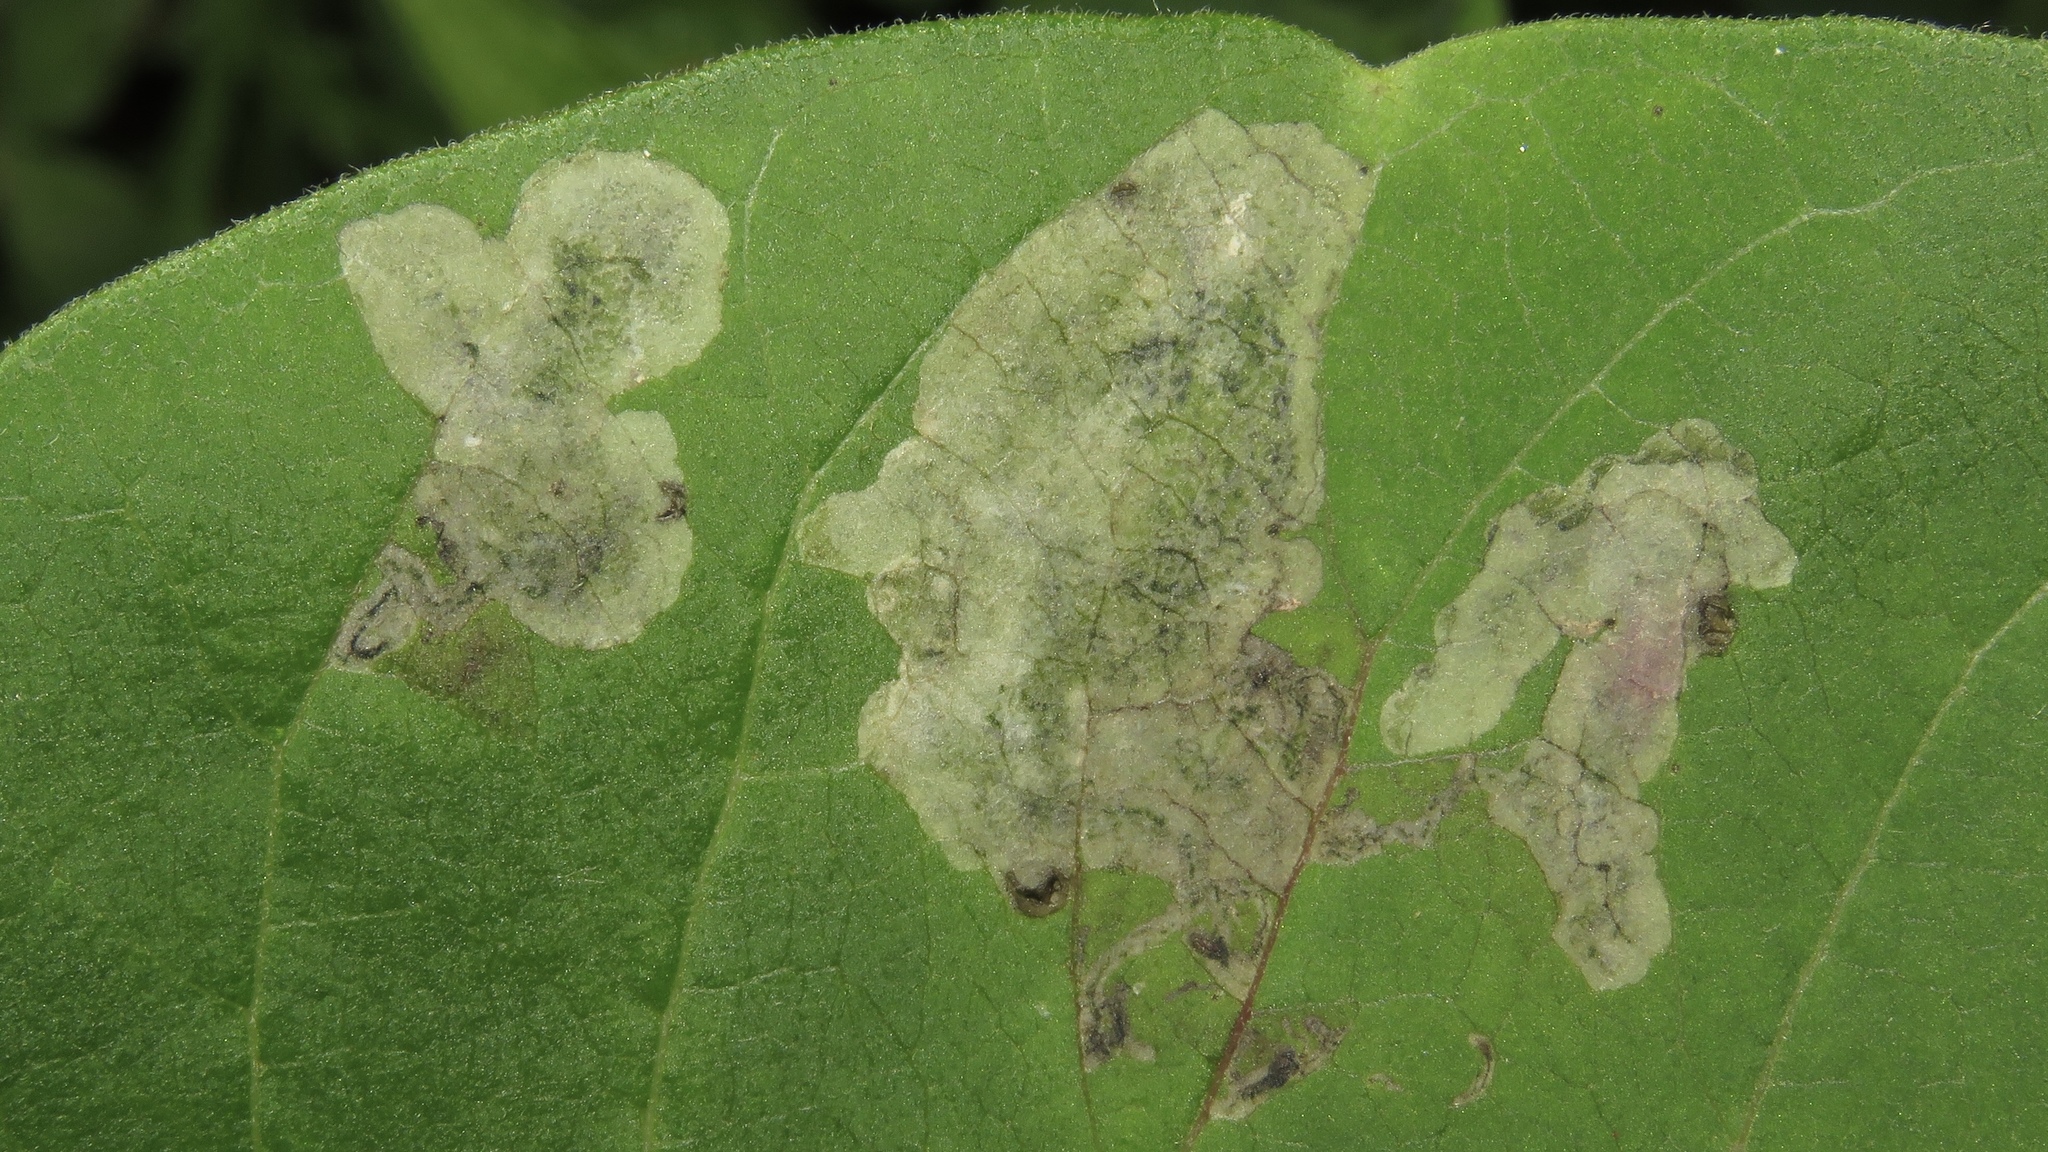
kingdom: Animalia
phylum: Arthropoda
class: Insecta
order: Diptera
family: Agromyzidae
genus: Liriomyza
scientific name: Liriomyza asclepiadis
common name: Milkweed leaf-miner fly
